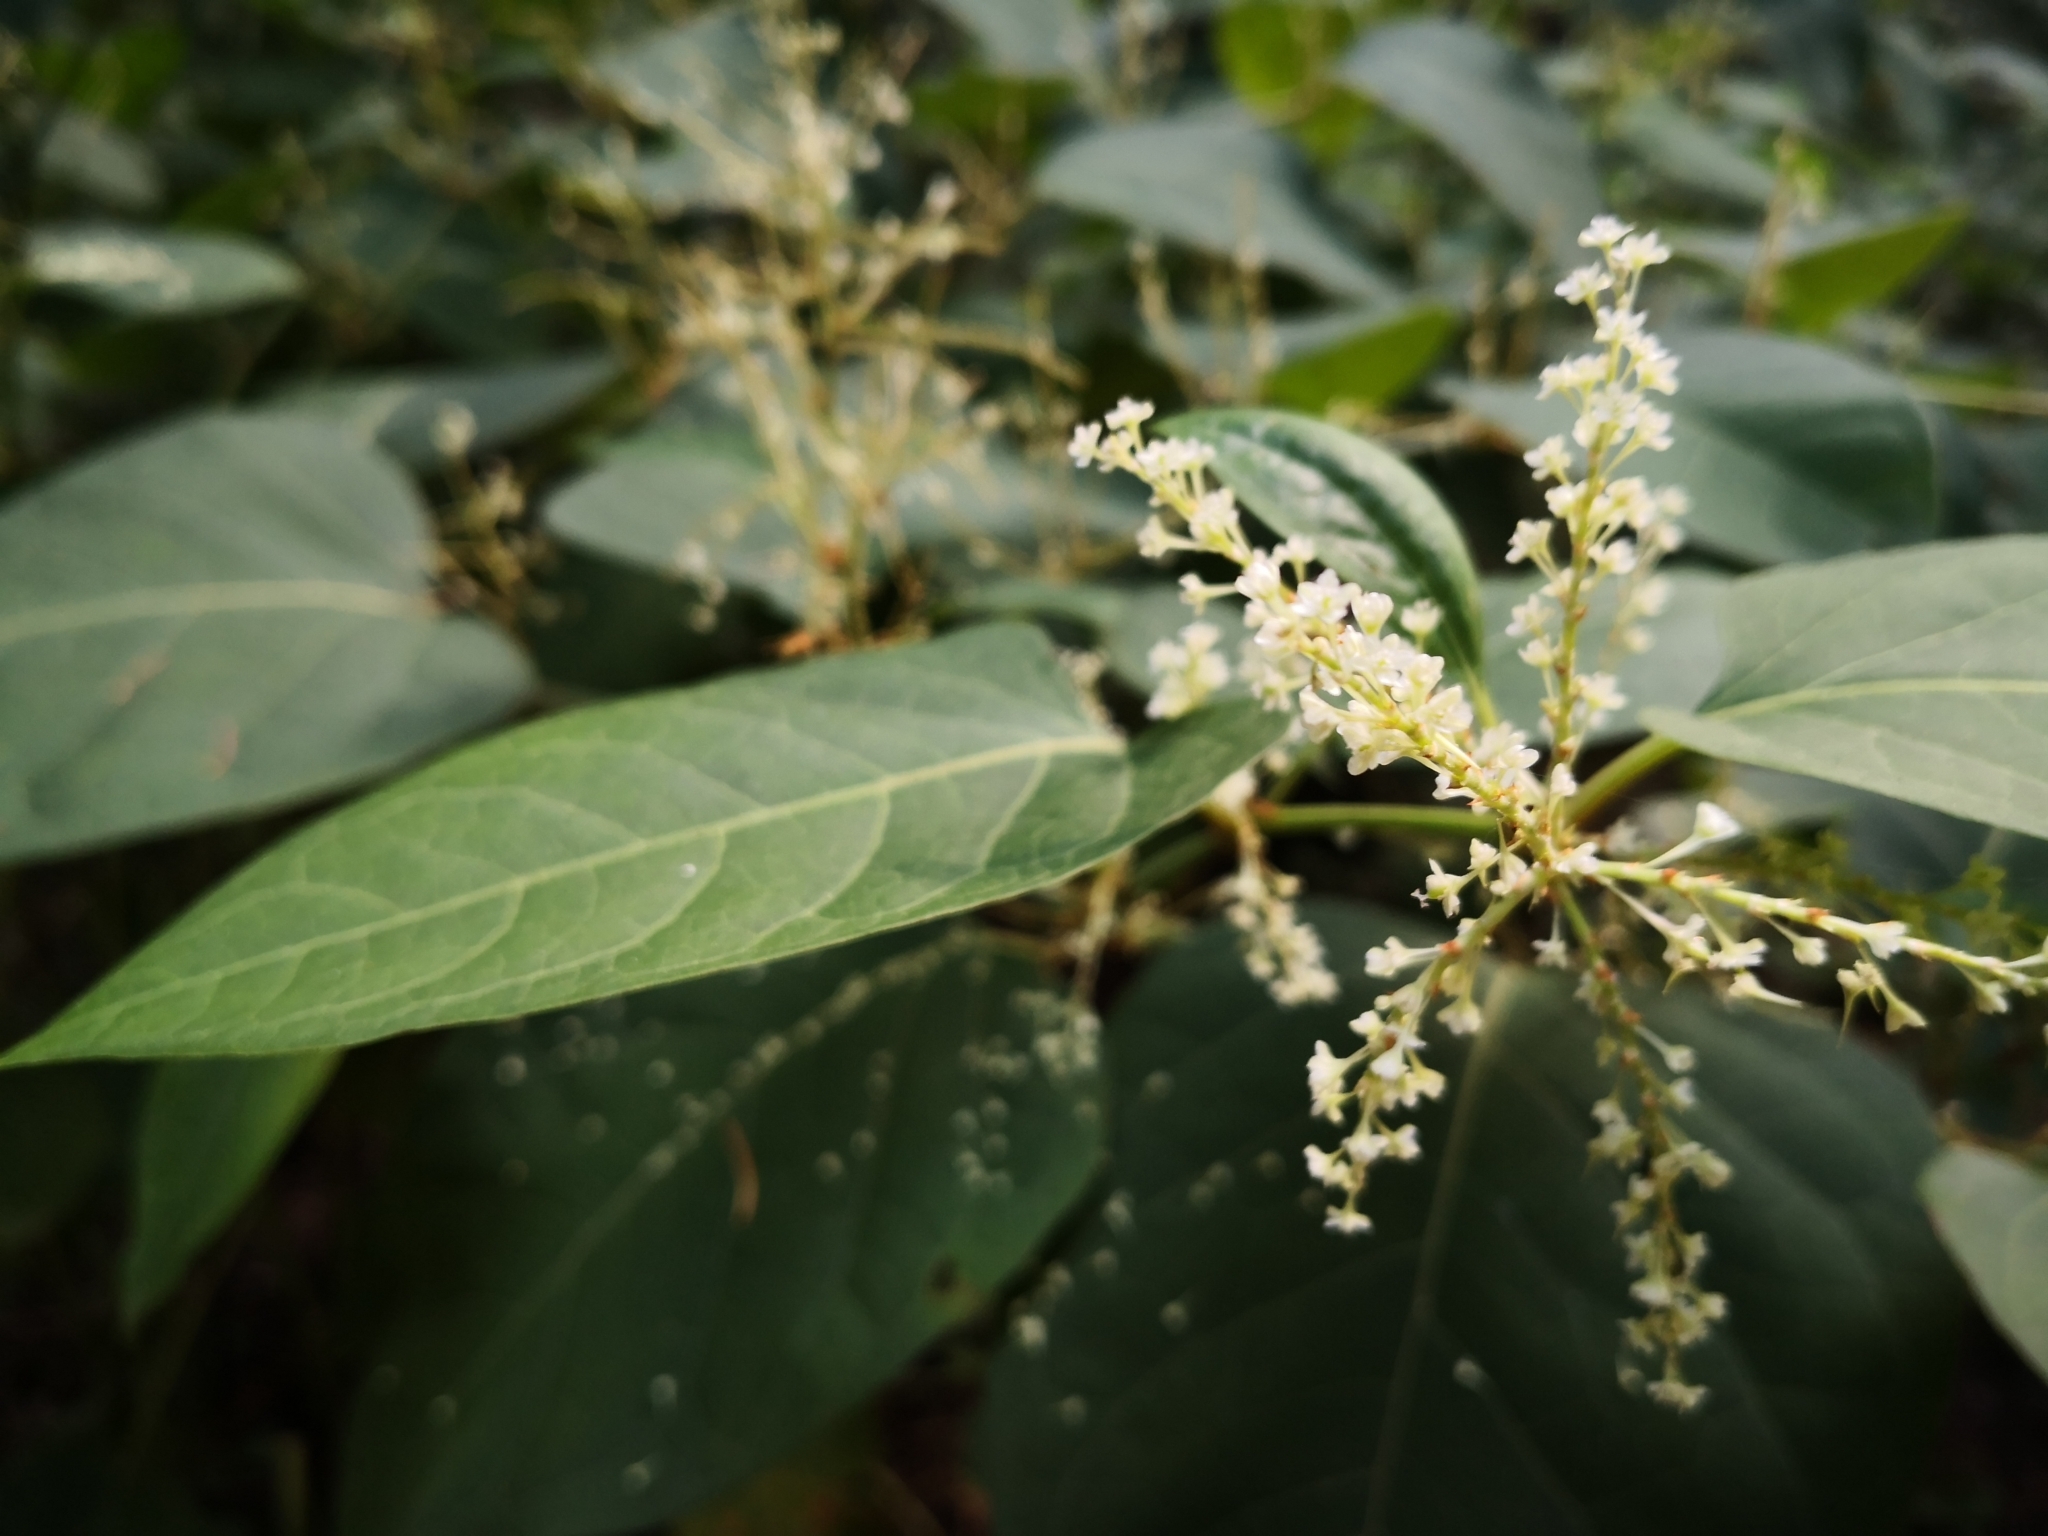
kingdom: Plantae
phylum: Tracheophyta
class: Magnoliopsida
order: Caryophyllales
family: Polygonaceae
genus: Reynoutria
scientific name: Reynoutria bohemica
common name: Bohemian knotweed
